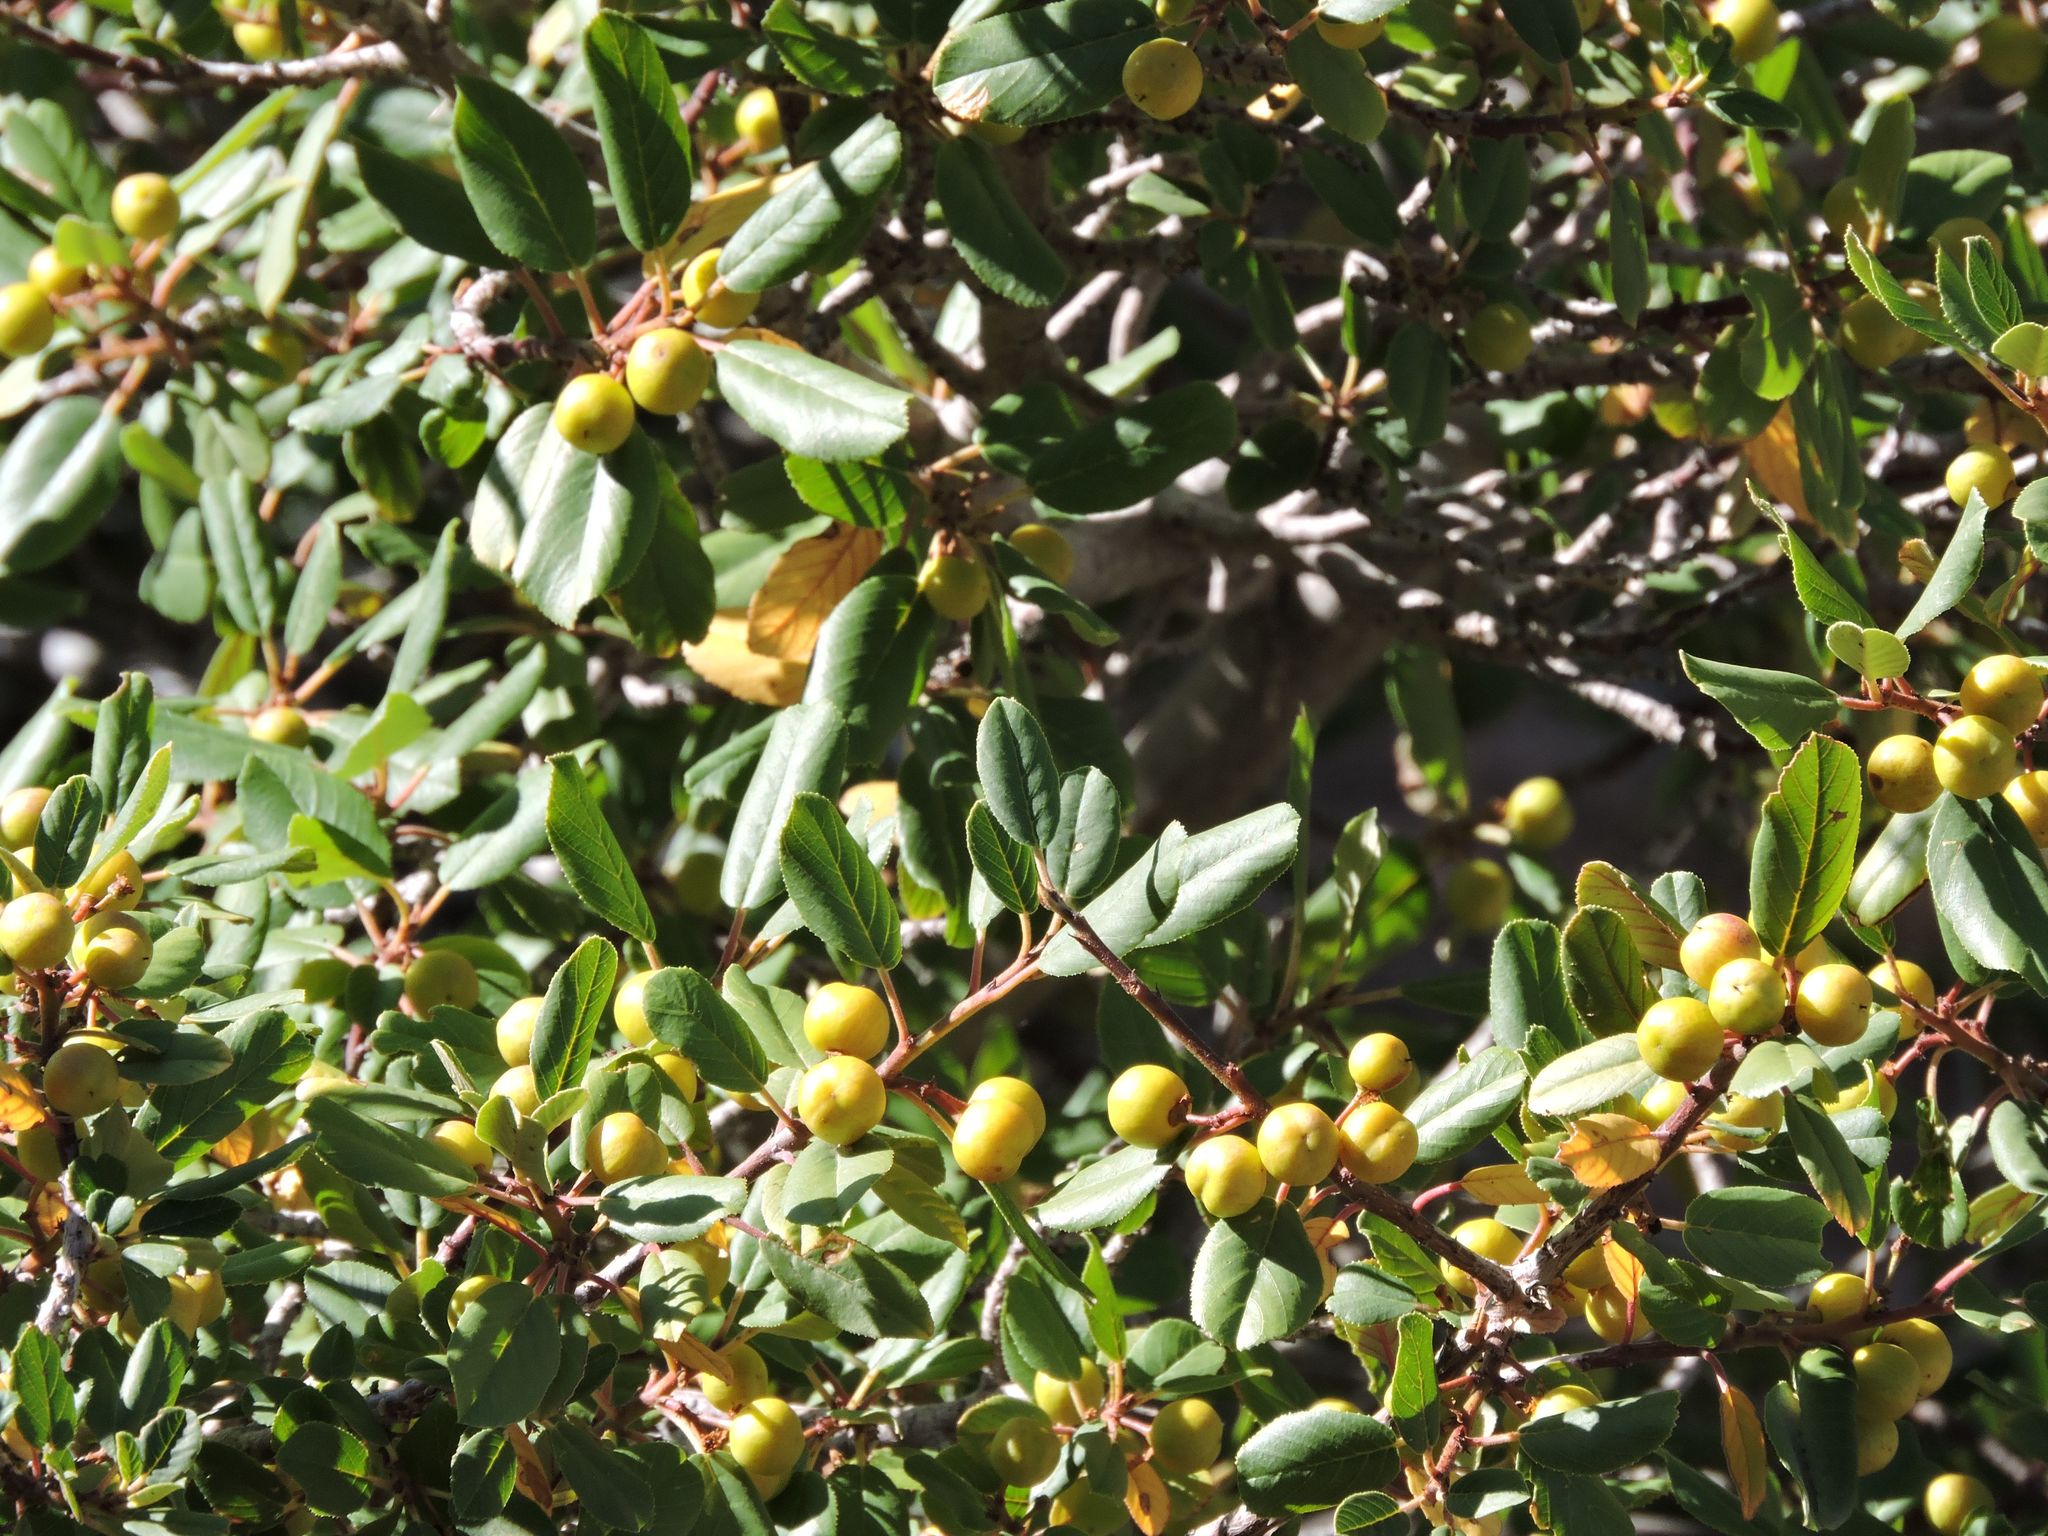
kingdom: Plantae
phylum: Tracheophyta
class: Magnoliopsida
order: Rosales
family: Rhamnaceae
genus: Frangula
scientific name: Frangula californica
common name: California buckthorn
